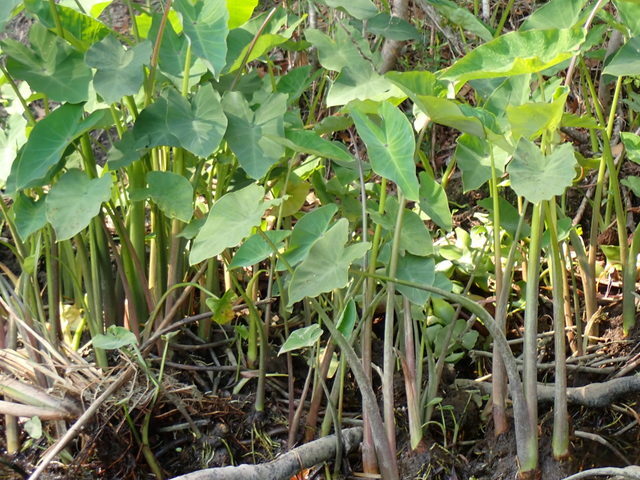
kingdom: Plantae
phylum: Tracheophyta
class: Liliopsida
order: Alismatales
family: Araceae
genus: Colocasia
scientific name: Colocasia esculenta
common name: Taro
